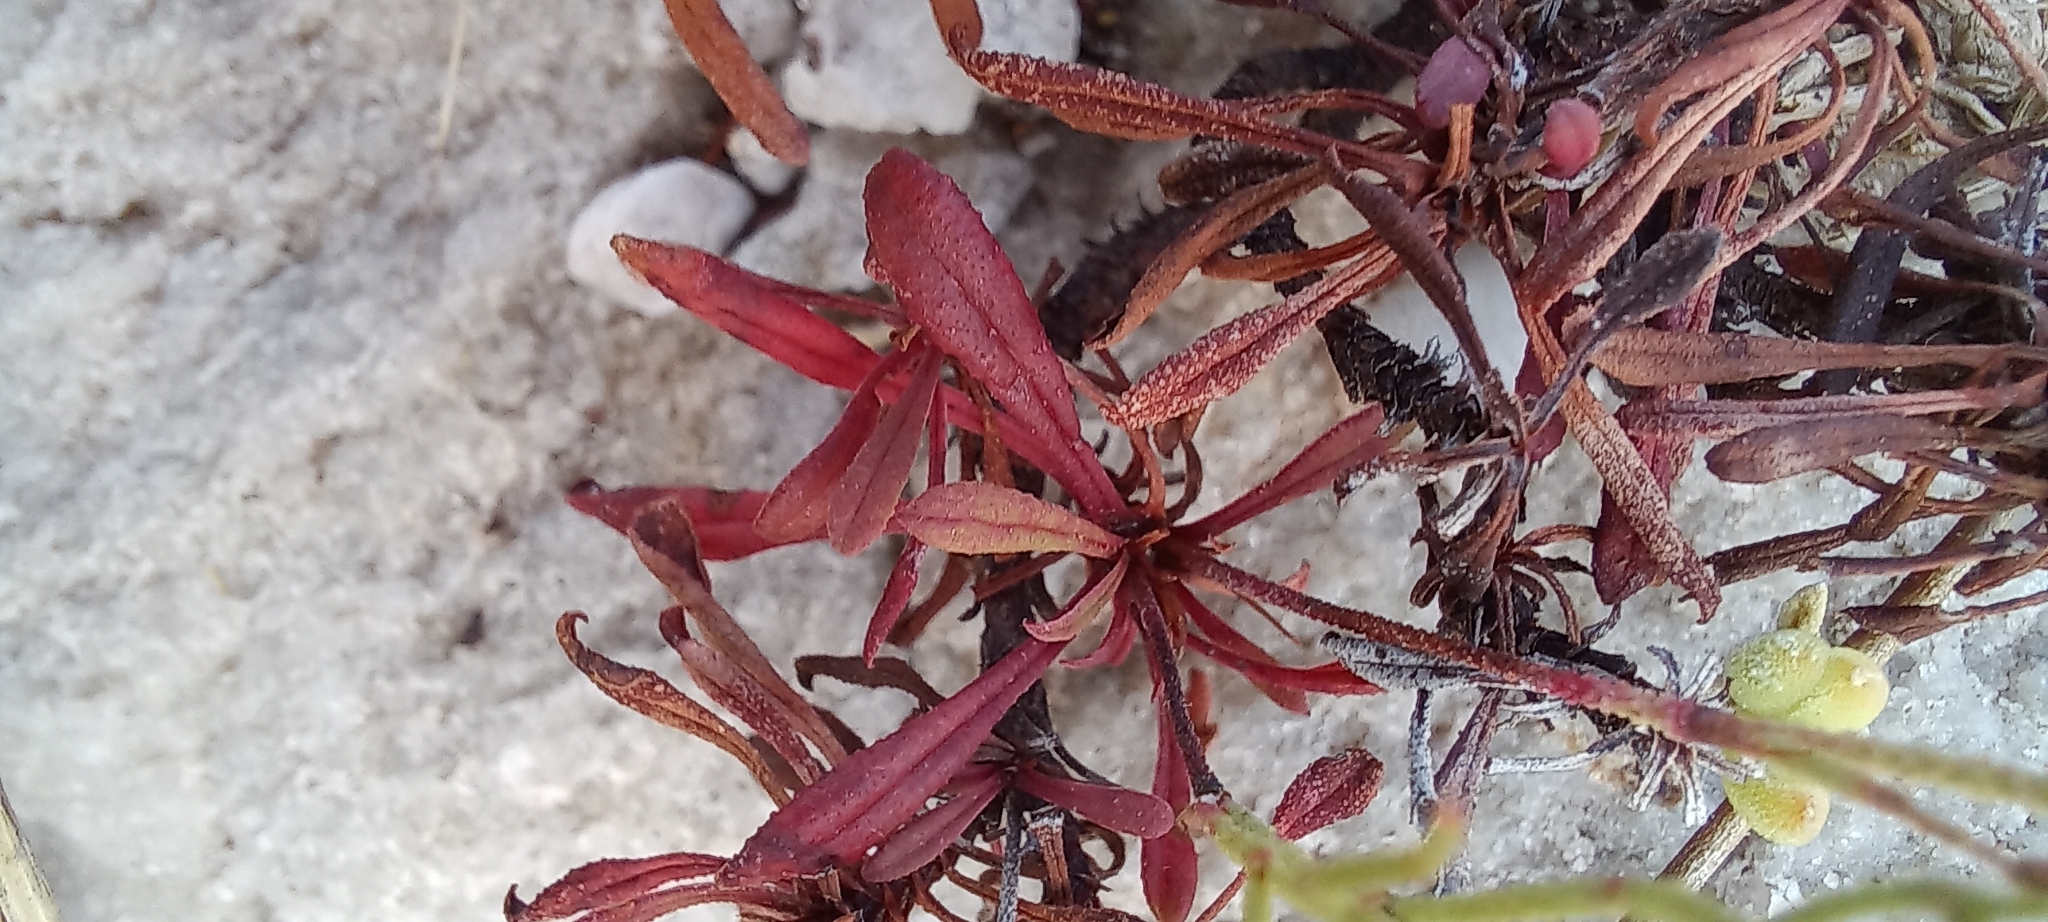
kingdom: Plantae
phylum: Tracheophyta
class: Magnoliopsida
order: Caryophyllales
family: Plumbaginaceae
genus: Limonium
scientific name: Limonium scabrum
